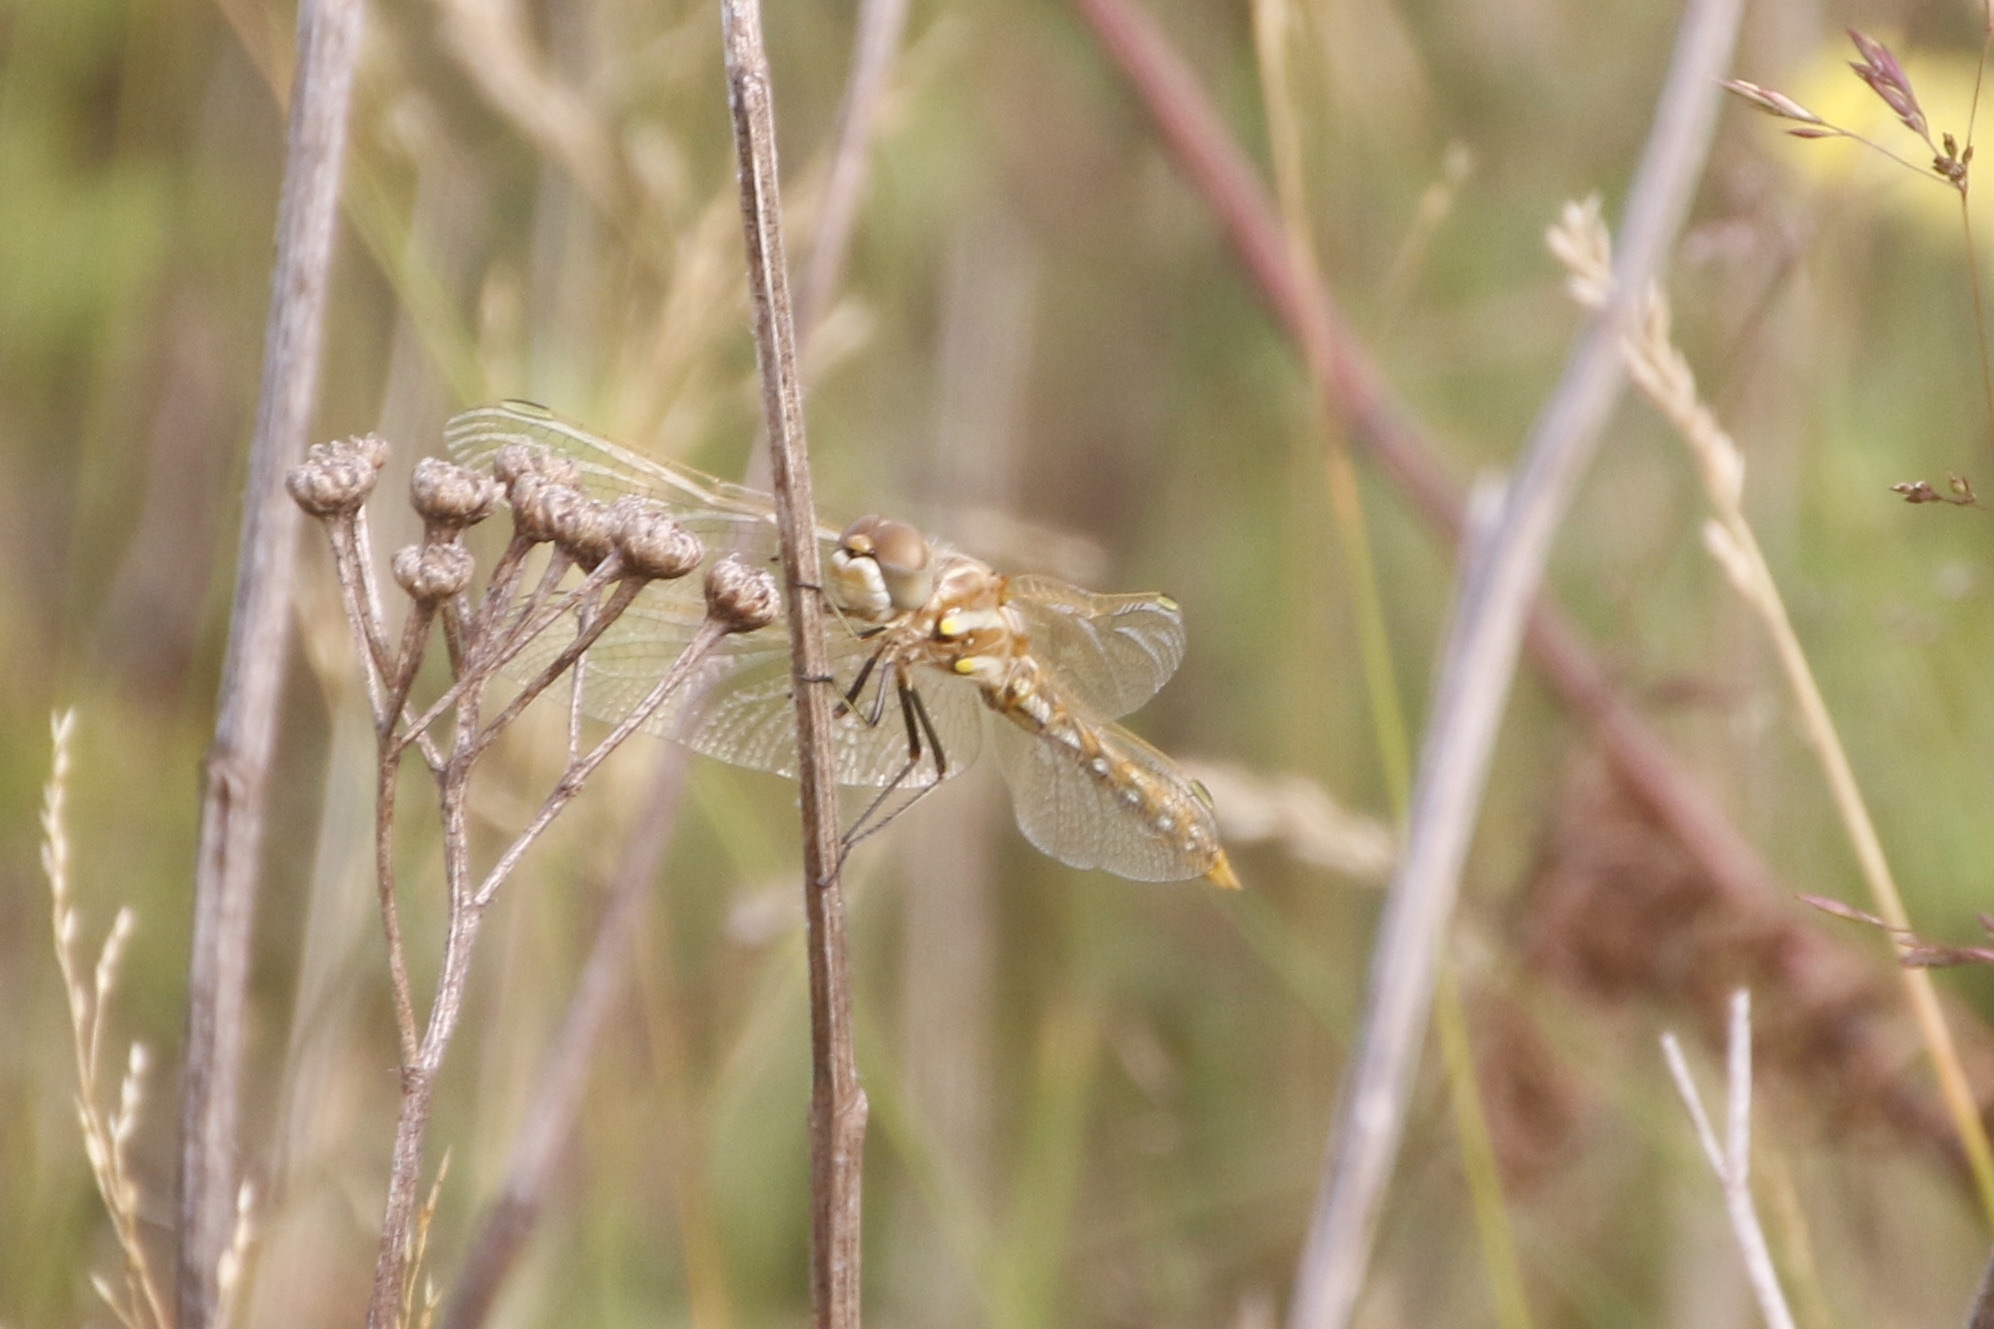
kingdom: Animalia
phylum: Arthropoda
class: Insecta
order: Odonata
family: Libellulidae
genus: Sympetrum
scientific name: Sympetrum corruptum
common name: Variegated meadowhawk
